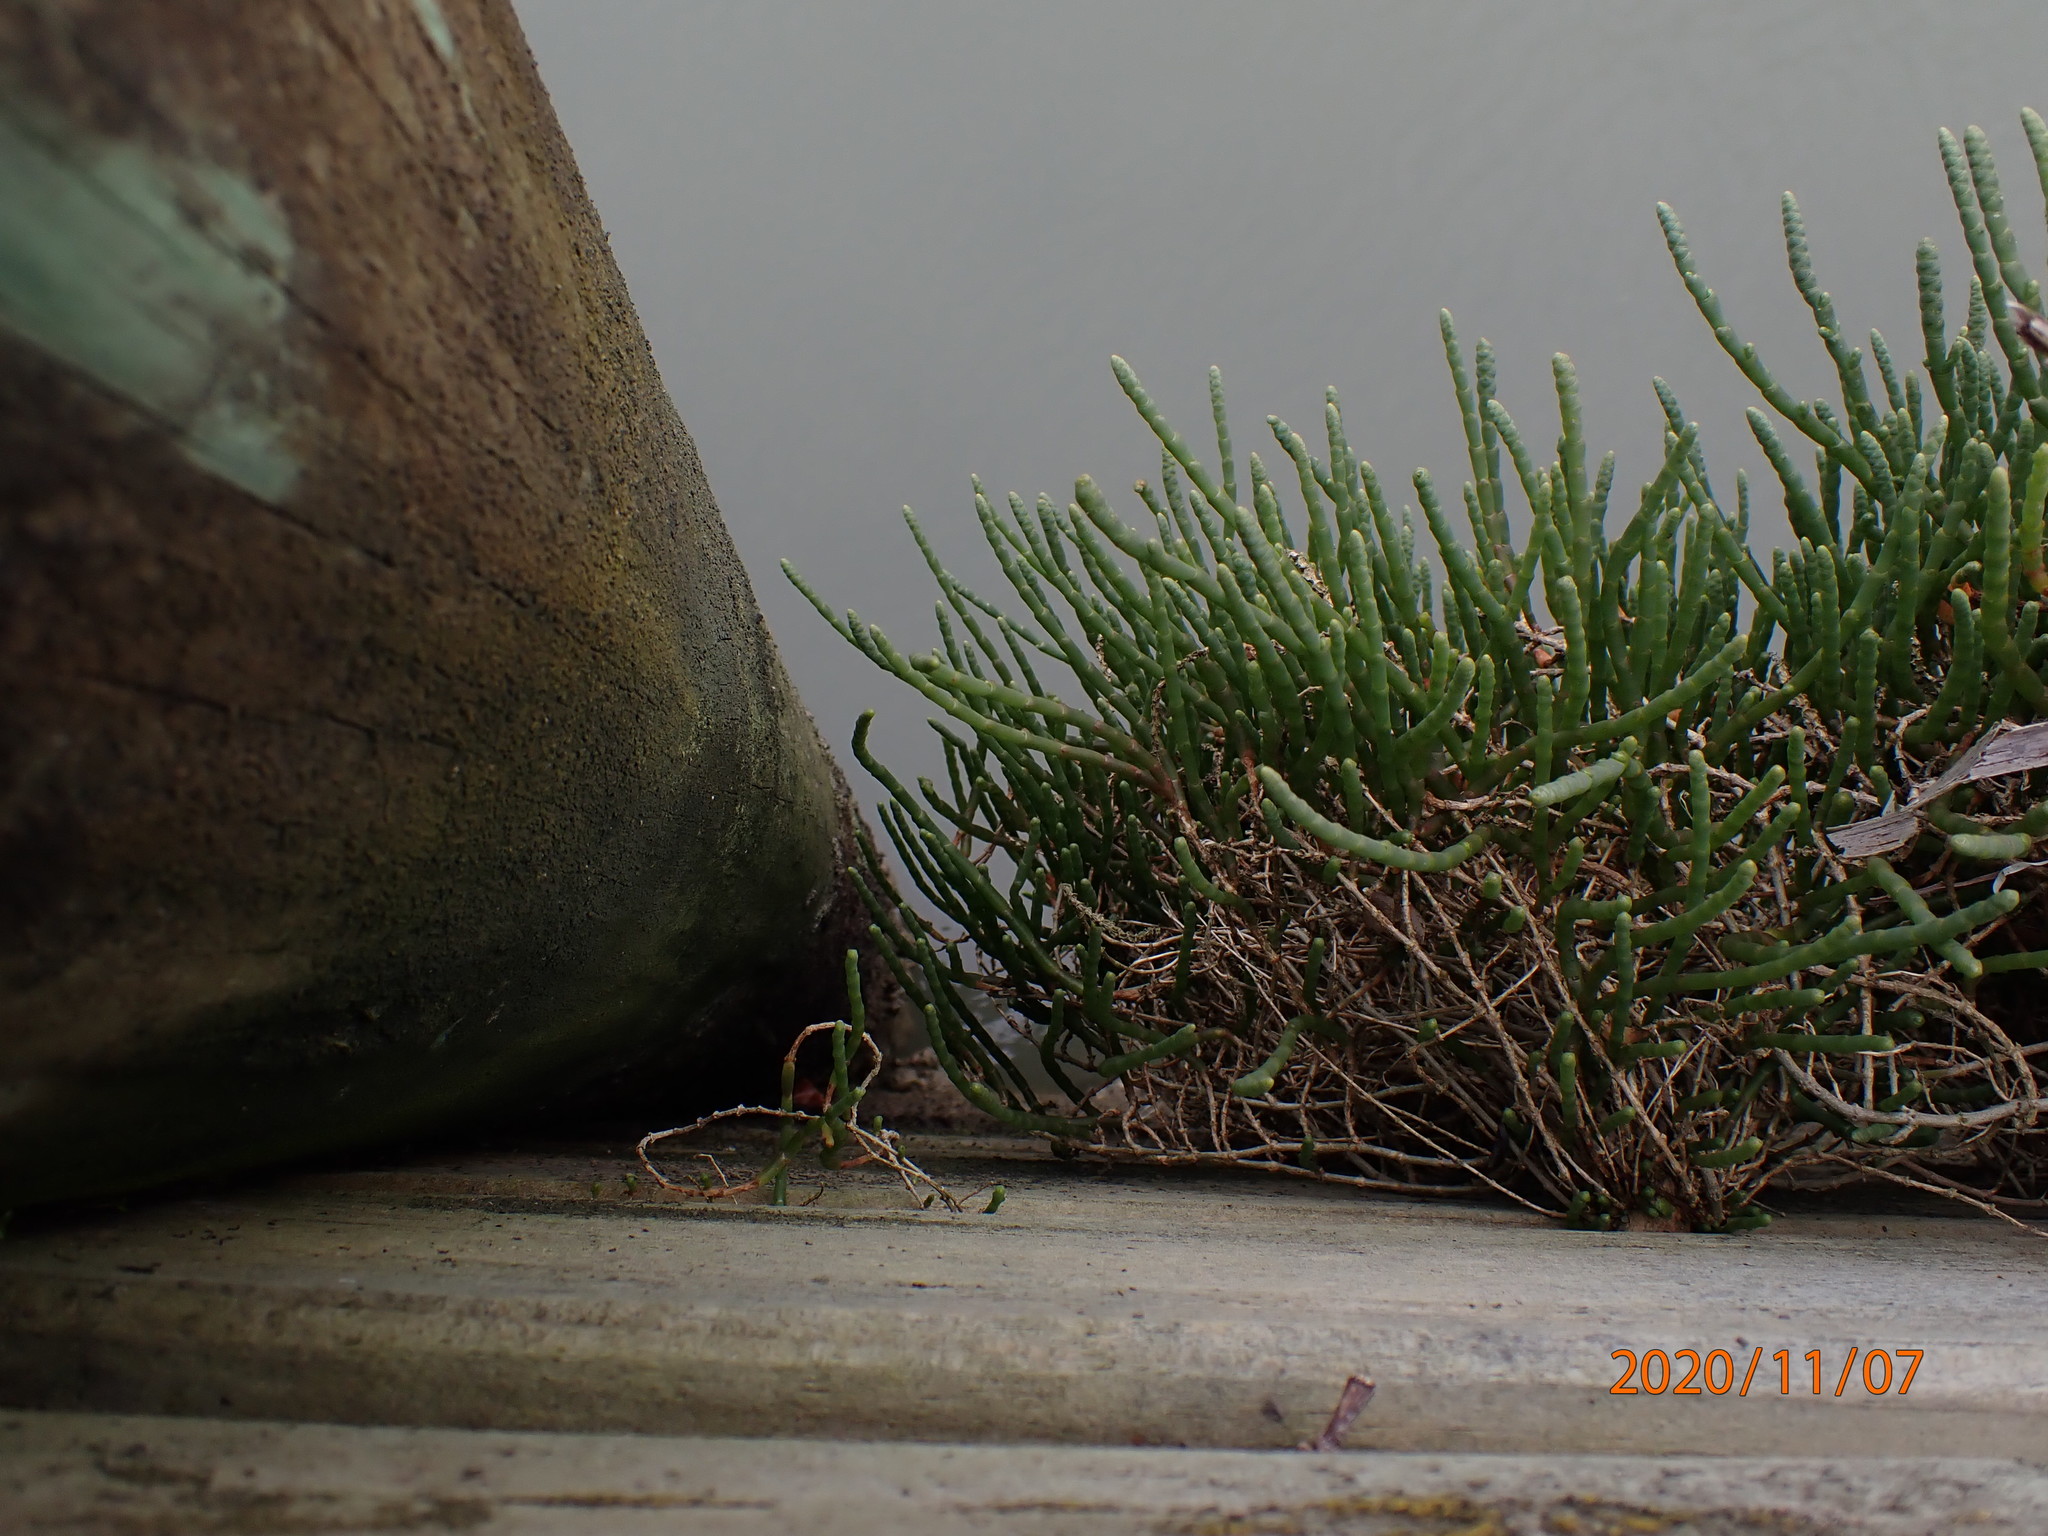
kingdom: Plantae
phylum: Tracheophyta
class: Magnoliopsida
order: Caryophyllales
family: Amaranthaceae
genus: Salicornia
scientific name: Salicornia quinqueflora
